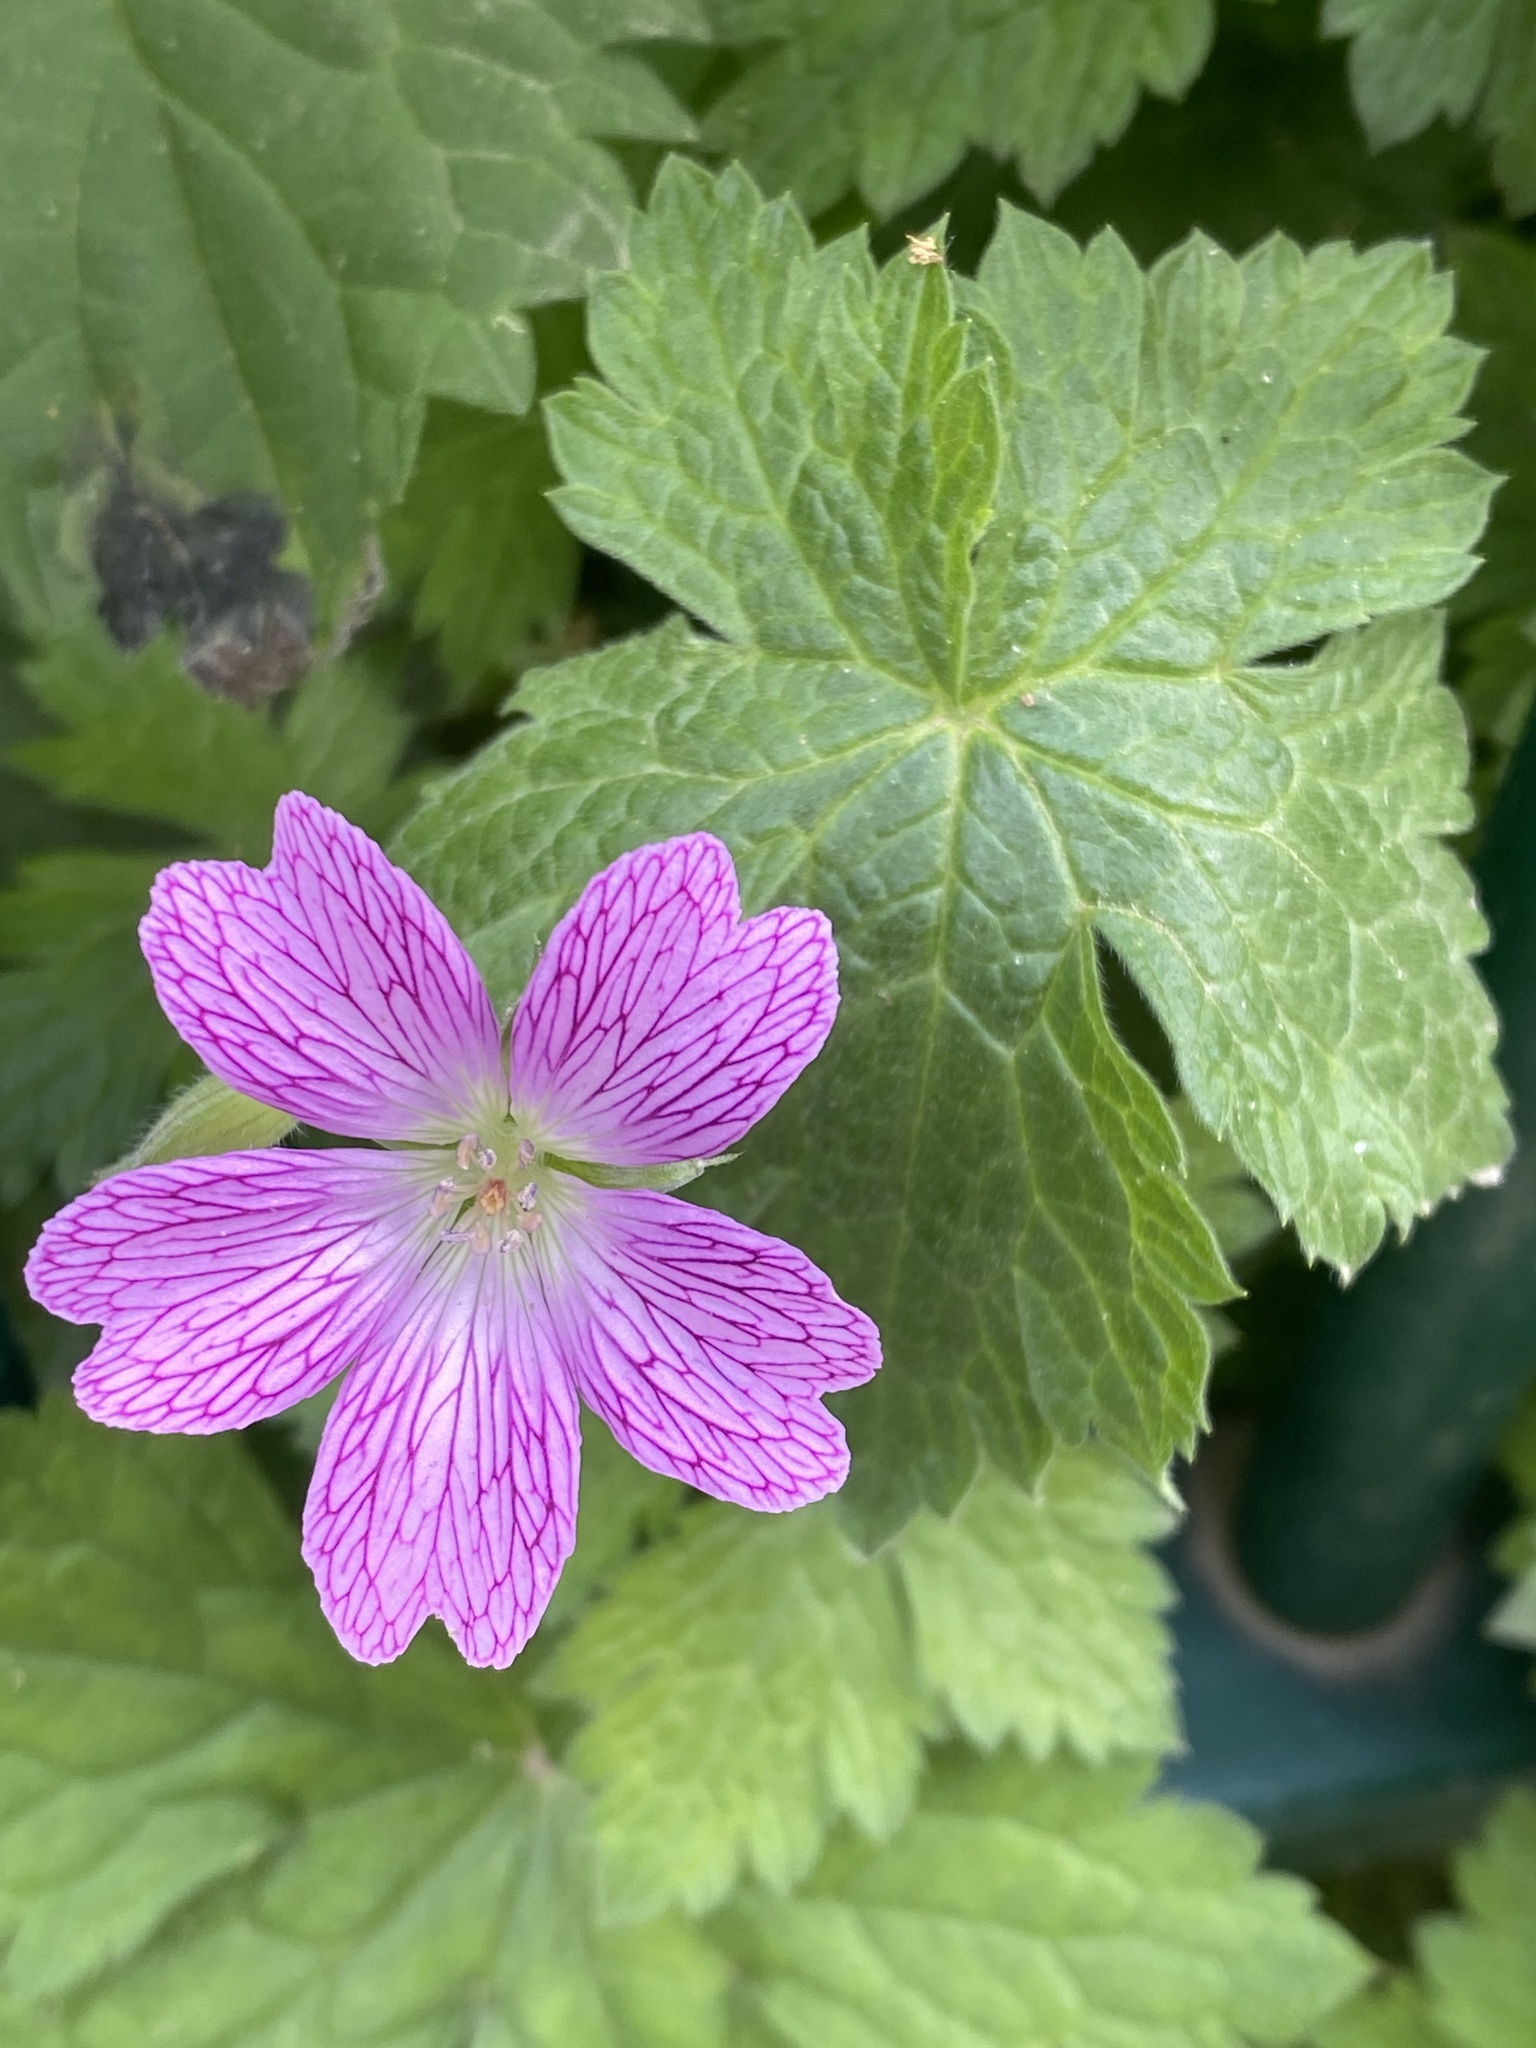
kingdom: Plantae
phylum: Tracheophyta
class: Magnoliopsida
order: Geraniales
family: Geraniaceae
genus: Geranium
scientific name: Geranium oxonianum
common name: Druce's crane's-bill
